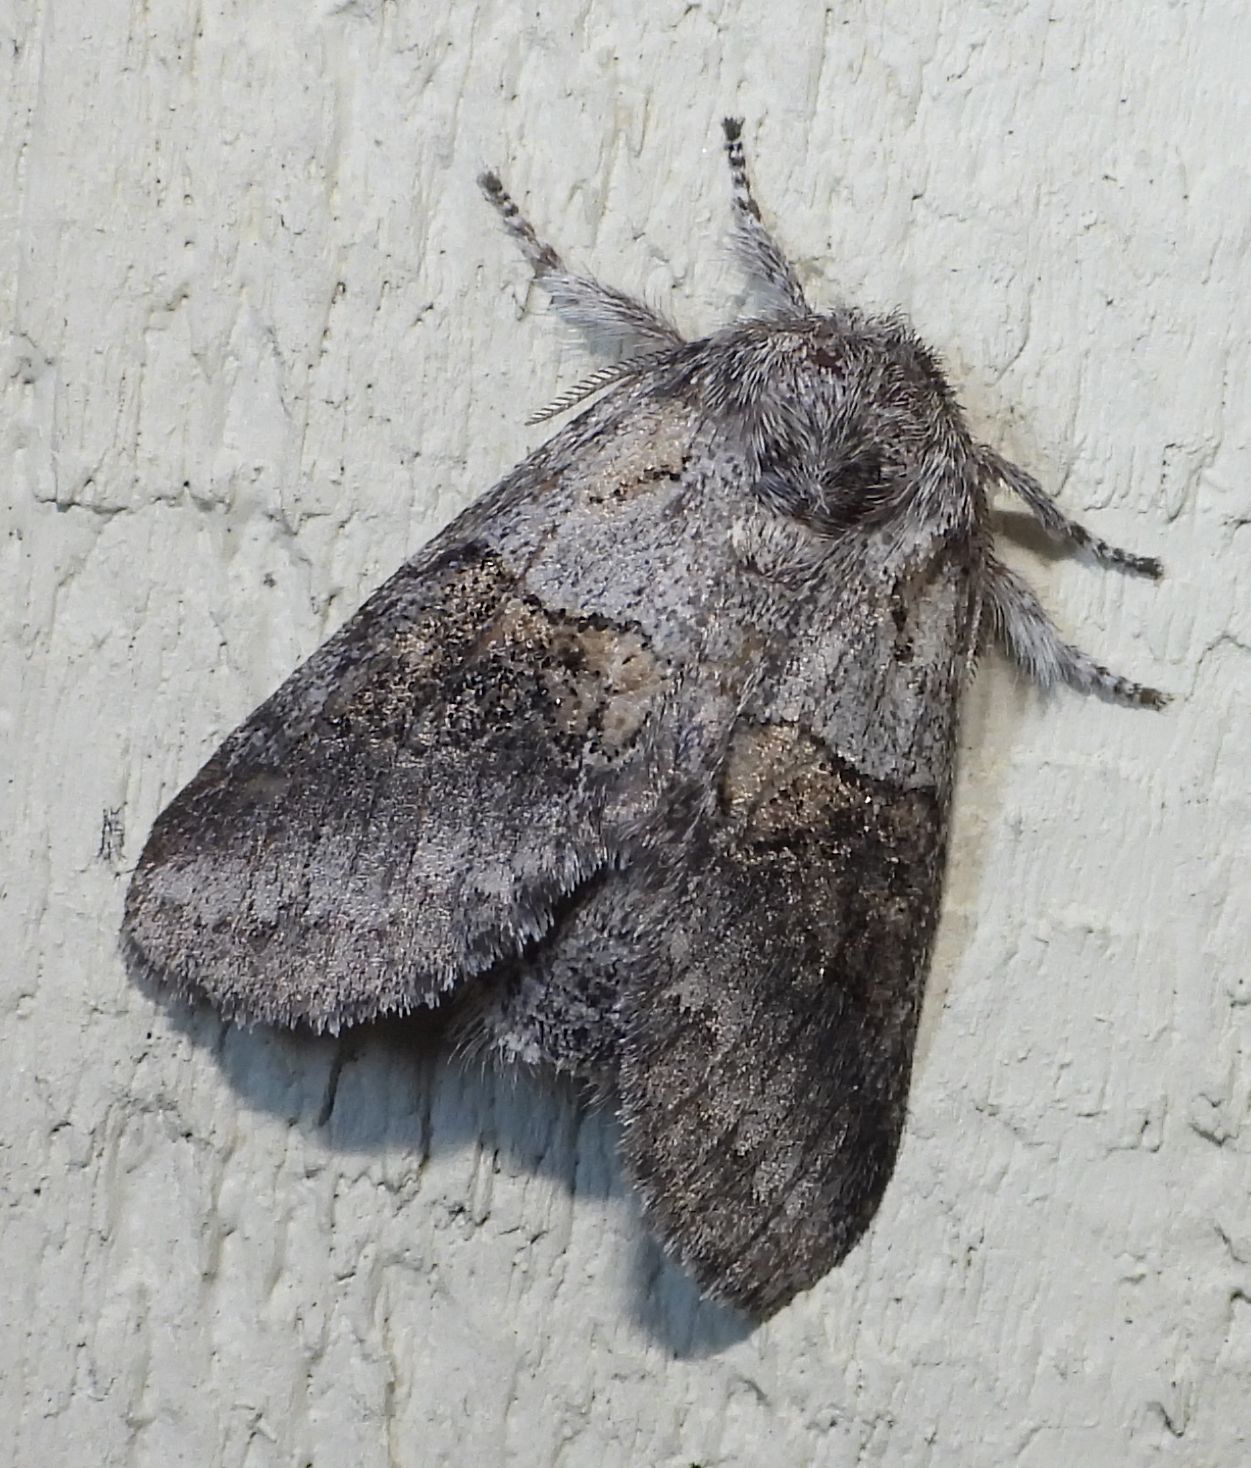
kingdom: Animalia
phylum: Arthropoda
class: Insecta
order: Lepidoptera
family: Notodontidae
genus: Gluphisia
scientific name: Gluphisia septentrionis
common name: Common gluphisia
